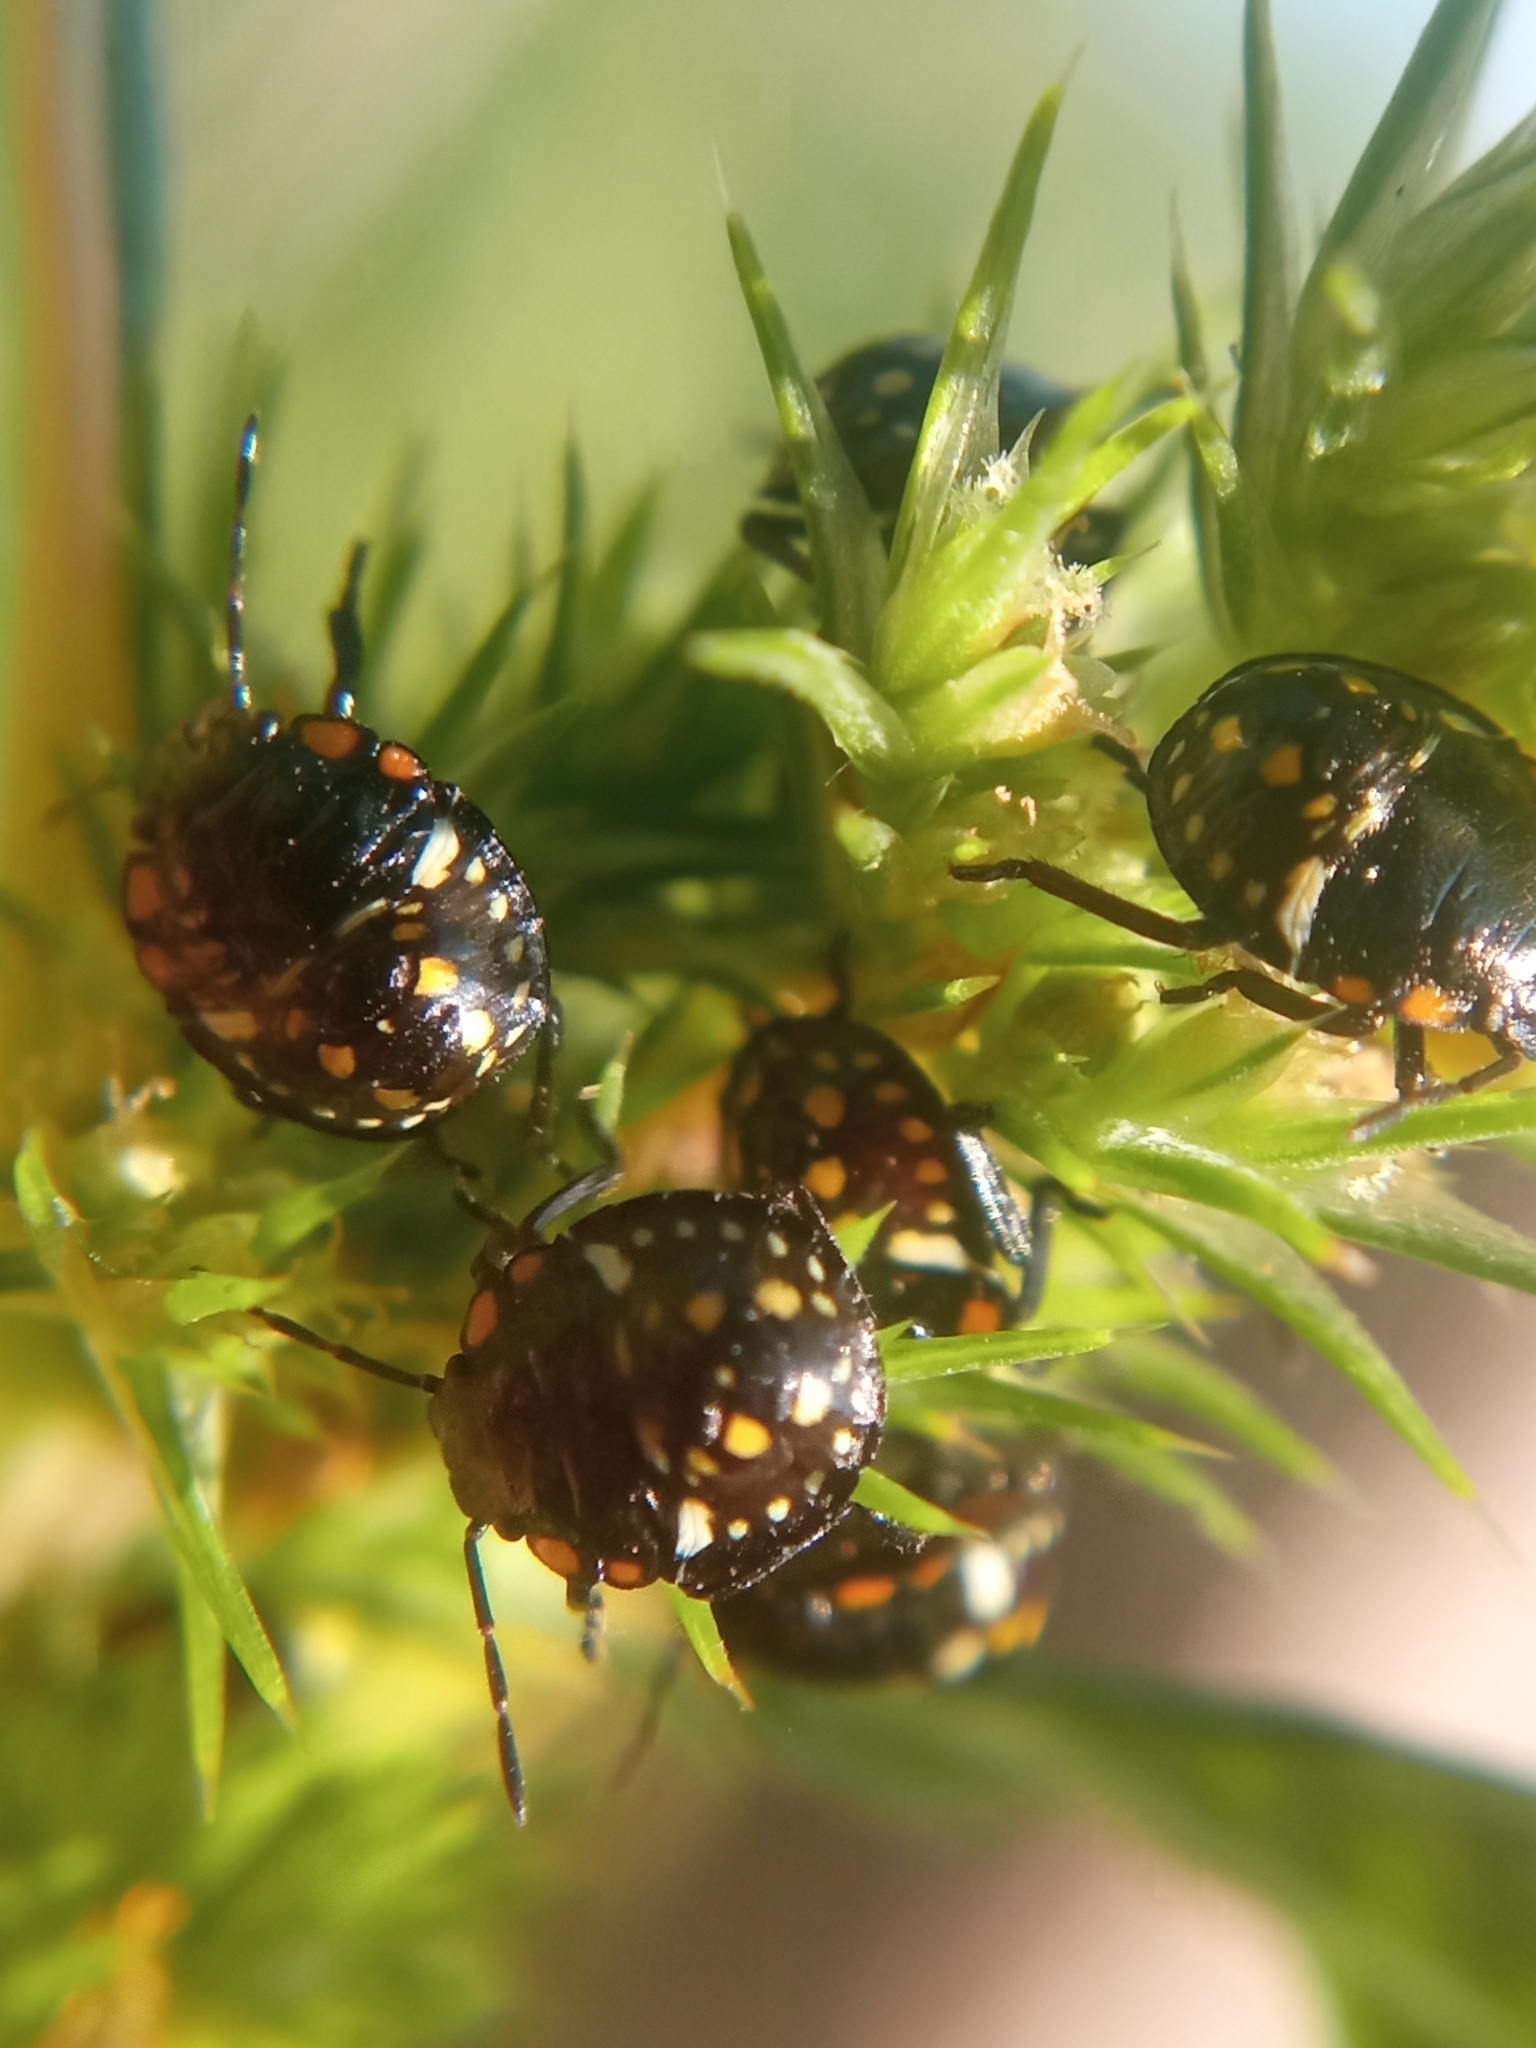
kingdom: Animalia
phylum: Arthropoda
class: Insecta
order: Hemiptera
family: Pentatomidae
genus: Nezara
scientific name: Nezara viridula
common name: Southern green stink bug
